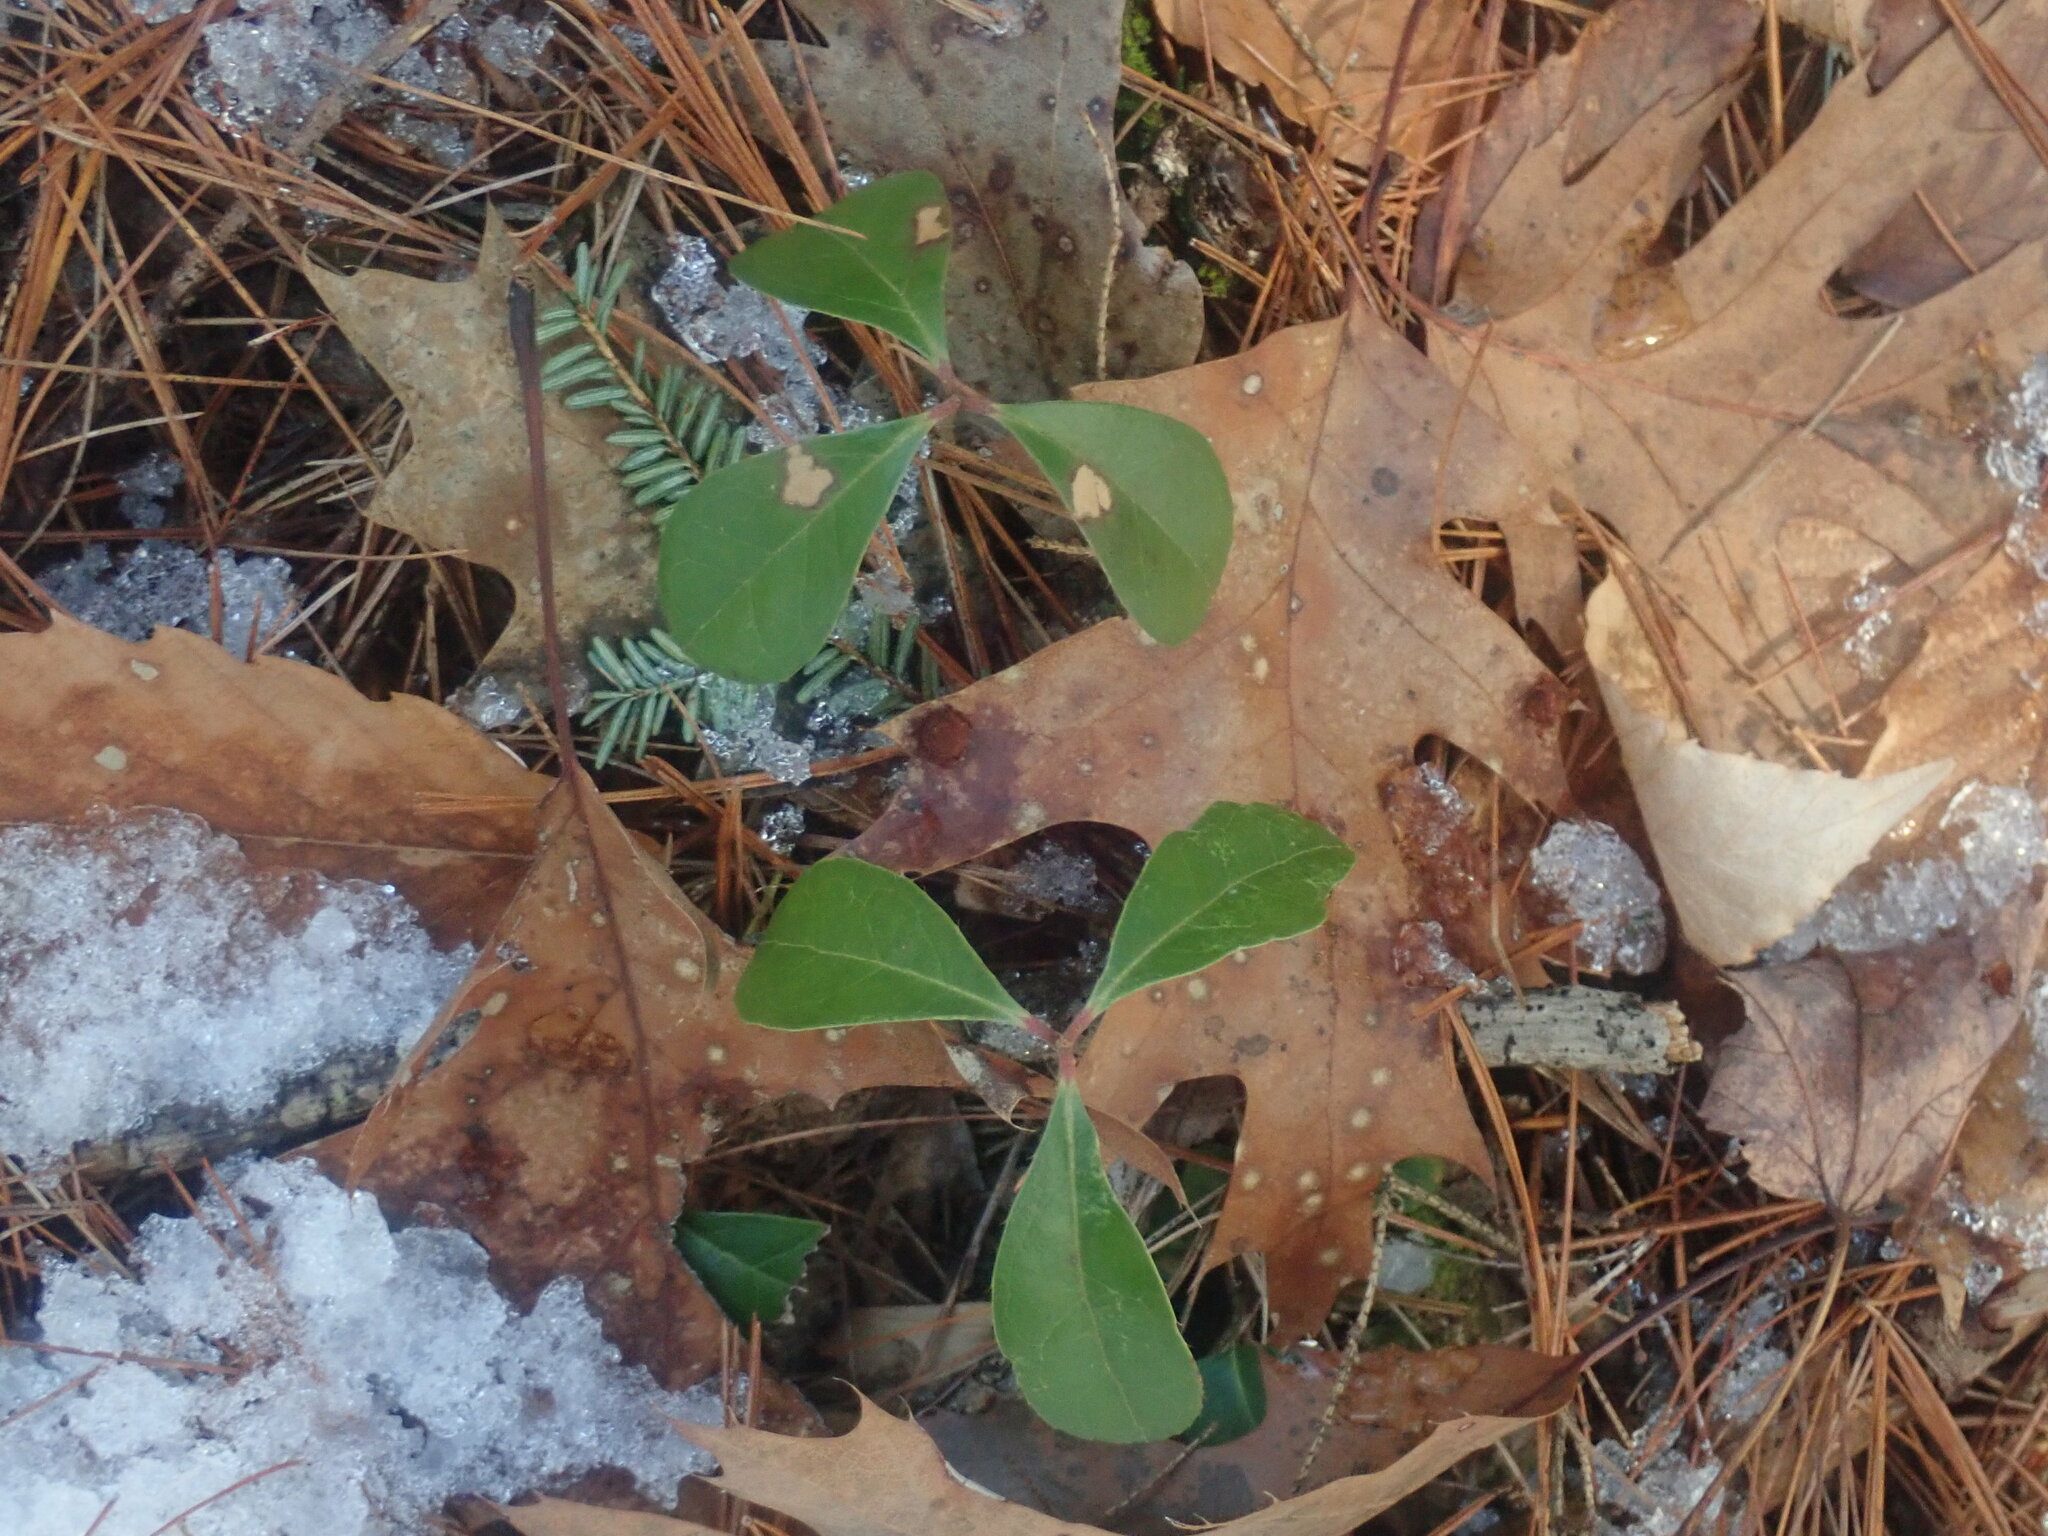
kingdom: Plantae
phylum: Tracheophyta
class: Magnoliopsida
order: Ericales
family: Ericaceae
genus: Gaultheria
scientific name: Gaultheria procumbens
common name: Checkerberry
